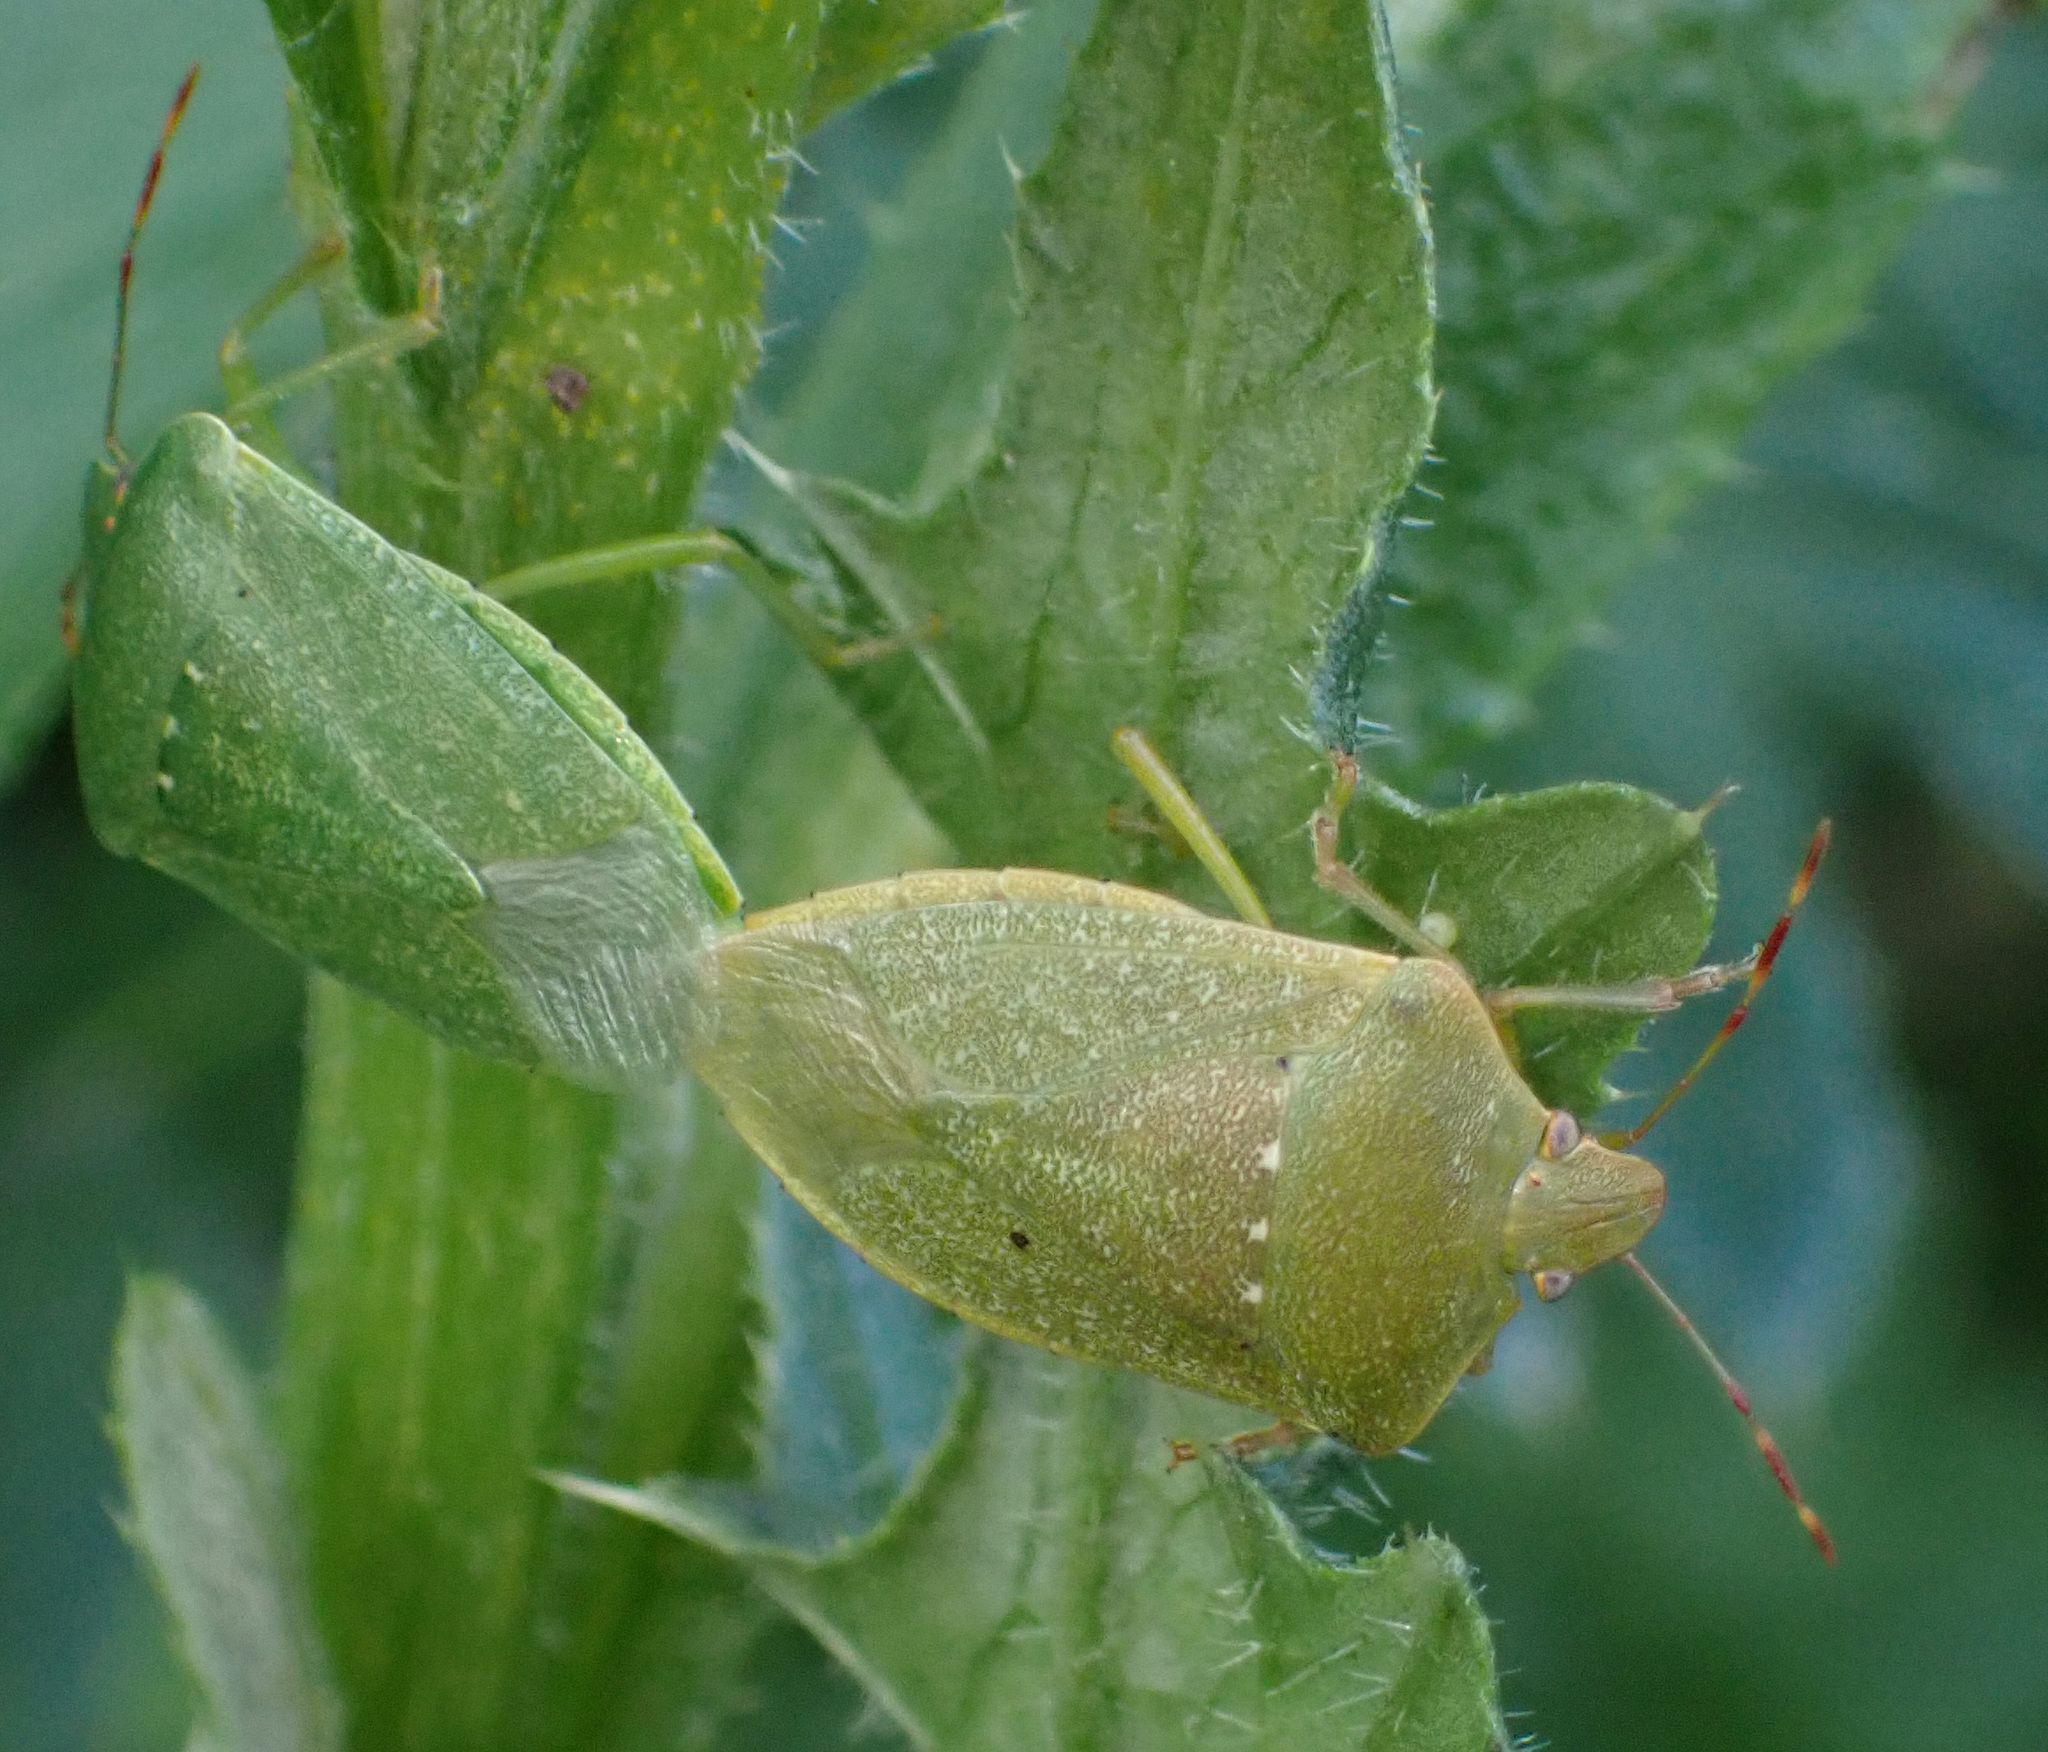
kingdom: Animalia
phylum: Arthropoda
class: Insecta
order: Hemiptera
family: Pentatomidae
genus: Nezara
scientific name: Nezara viridula
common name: Southern green stink bug
